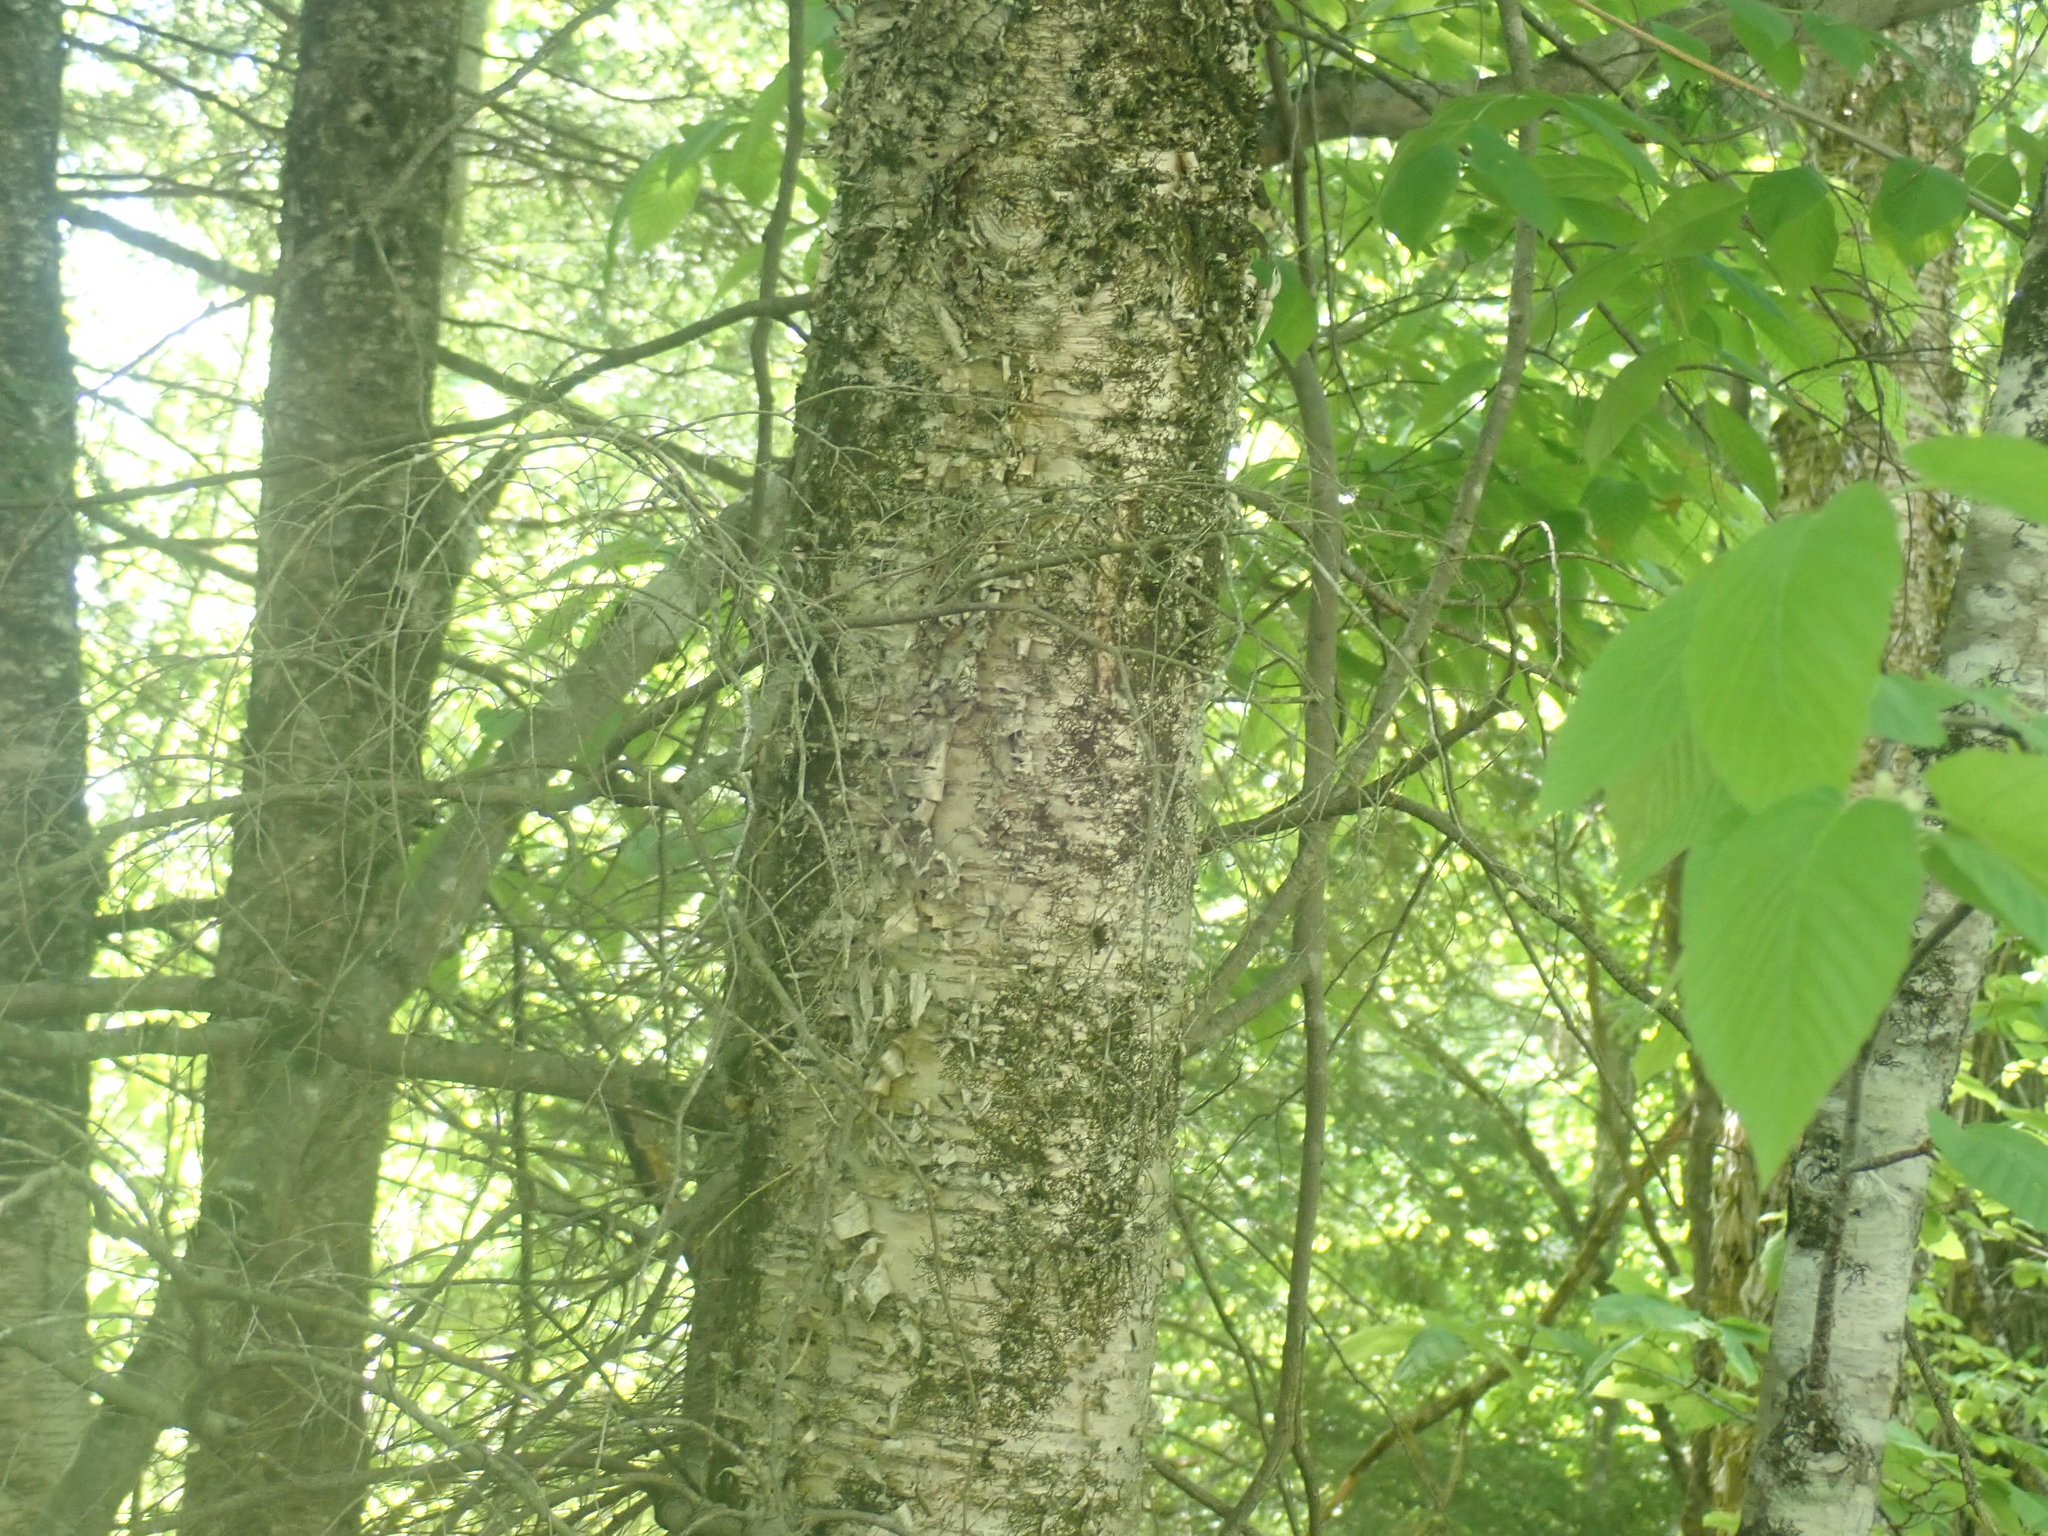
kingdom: Plantae
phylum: Tracheophyta
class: Magnoliopsida
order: Fagales
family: Betulaceae
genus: Betula
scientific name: Betula alleghaniensis
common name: Yellow birch
